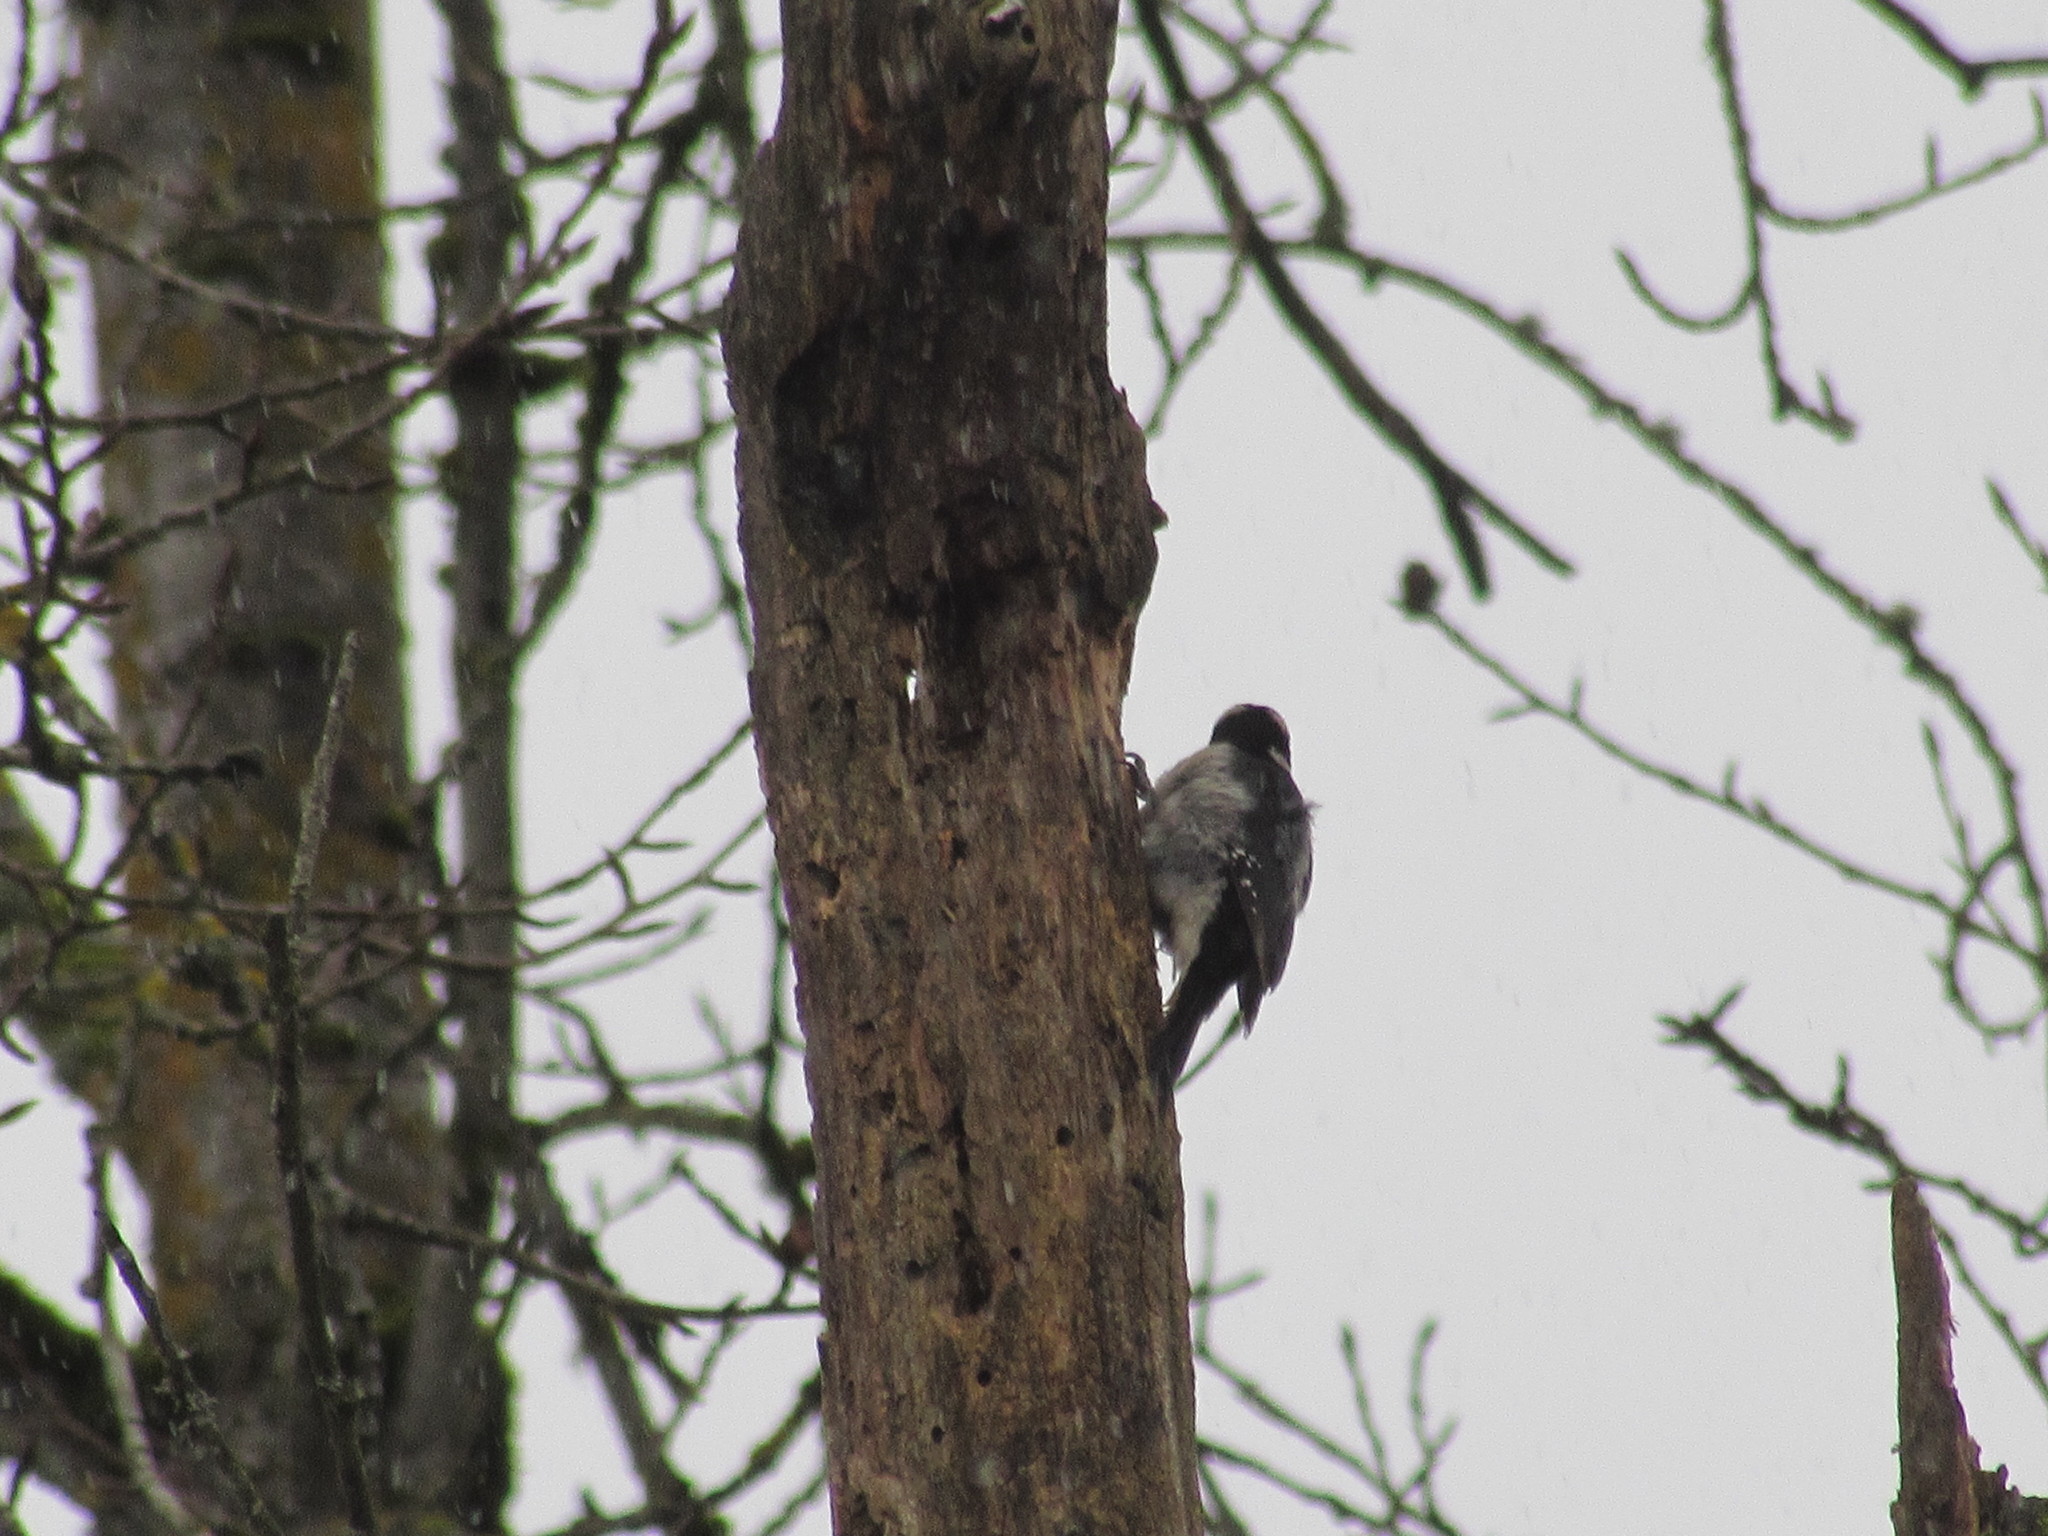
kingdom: Animalia
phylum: Chordata
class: Aves
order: Piciformes
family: Picidae
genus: Dryobates
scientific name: Dryobates pubescens
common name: Downy woodpecker
